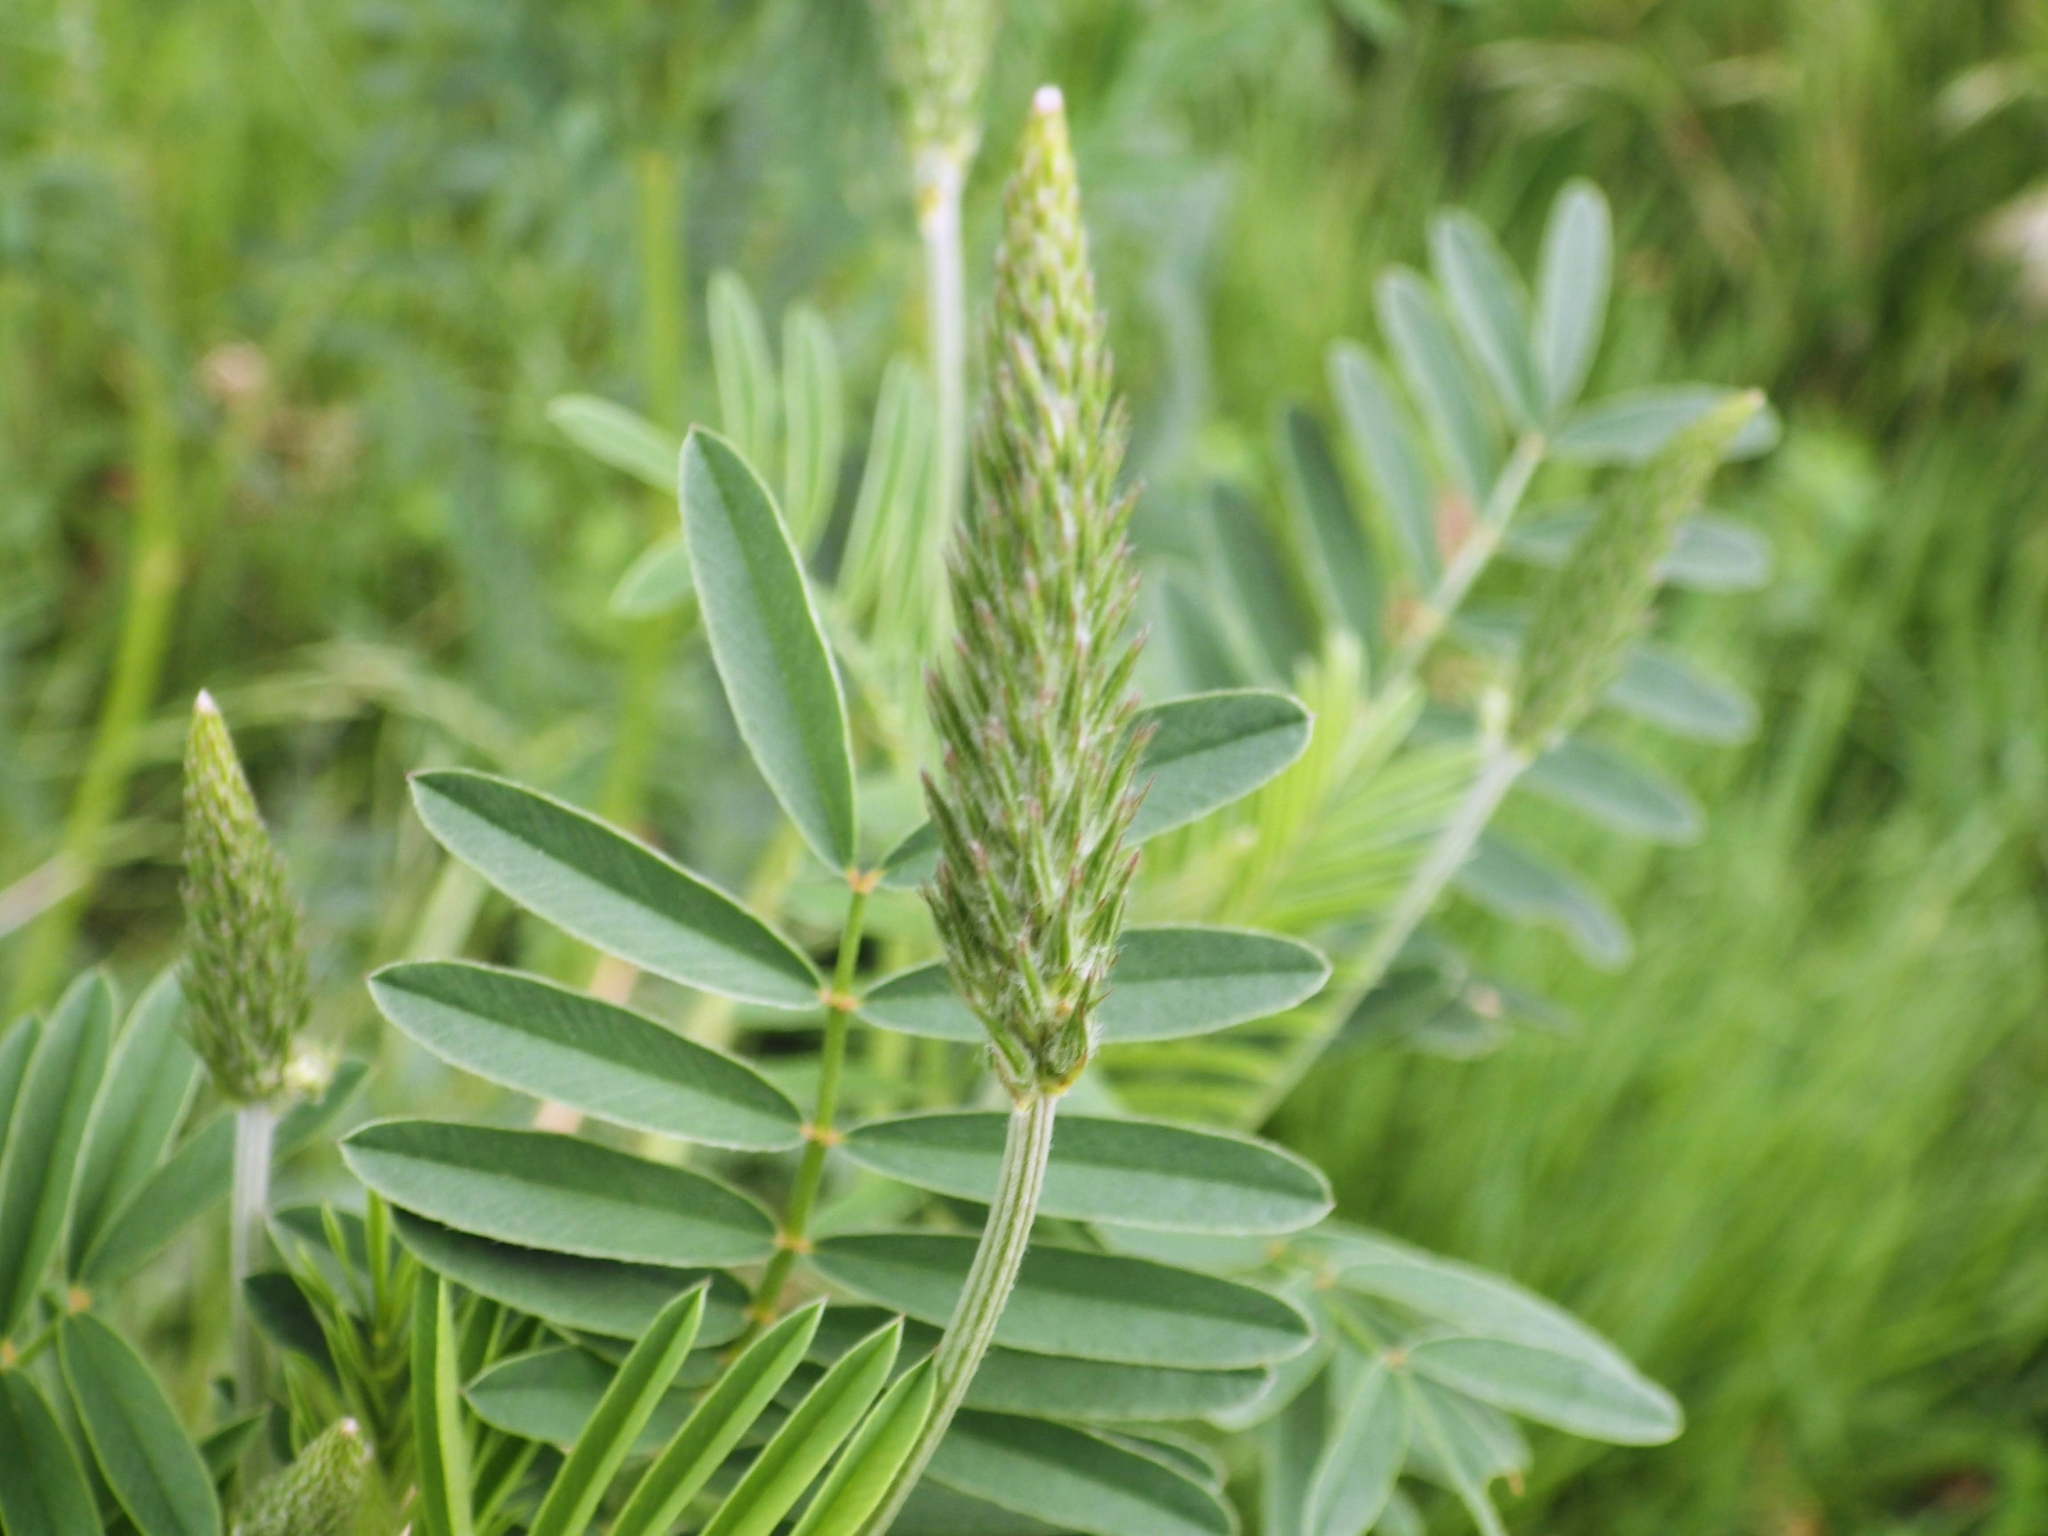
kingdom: Plantae
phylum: Tracheophyta
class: Magnoliopsida
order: Fabales
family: Fabaceae
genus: Onobrychis
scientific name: Onobrychis viciifolia
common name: Sainfoin
